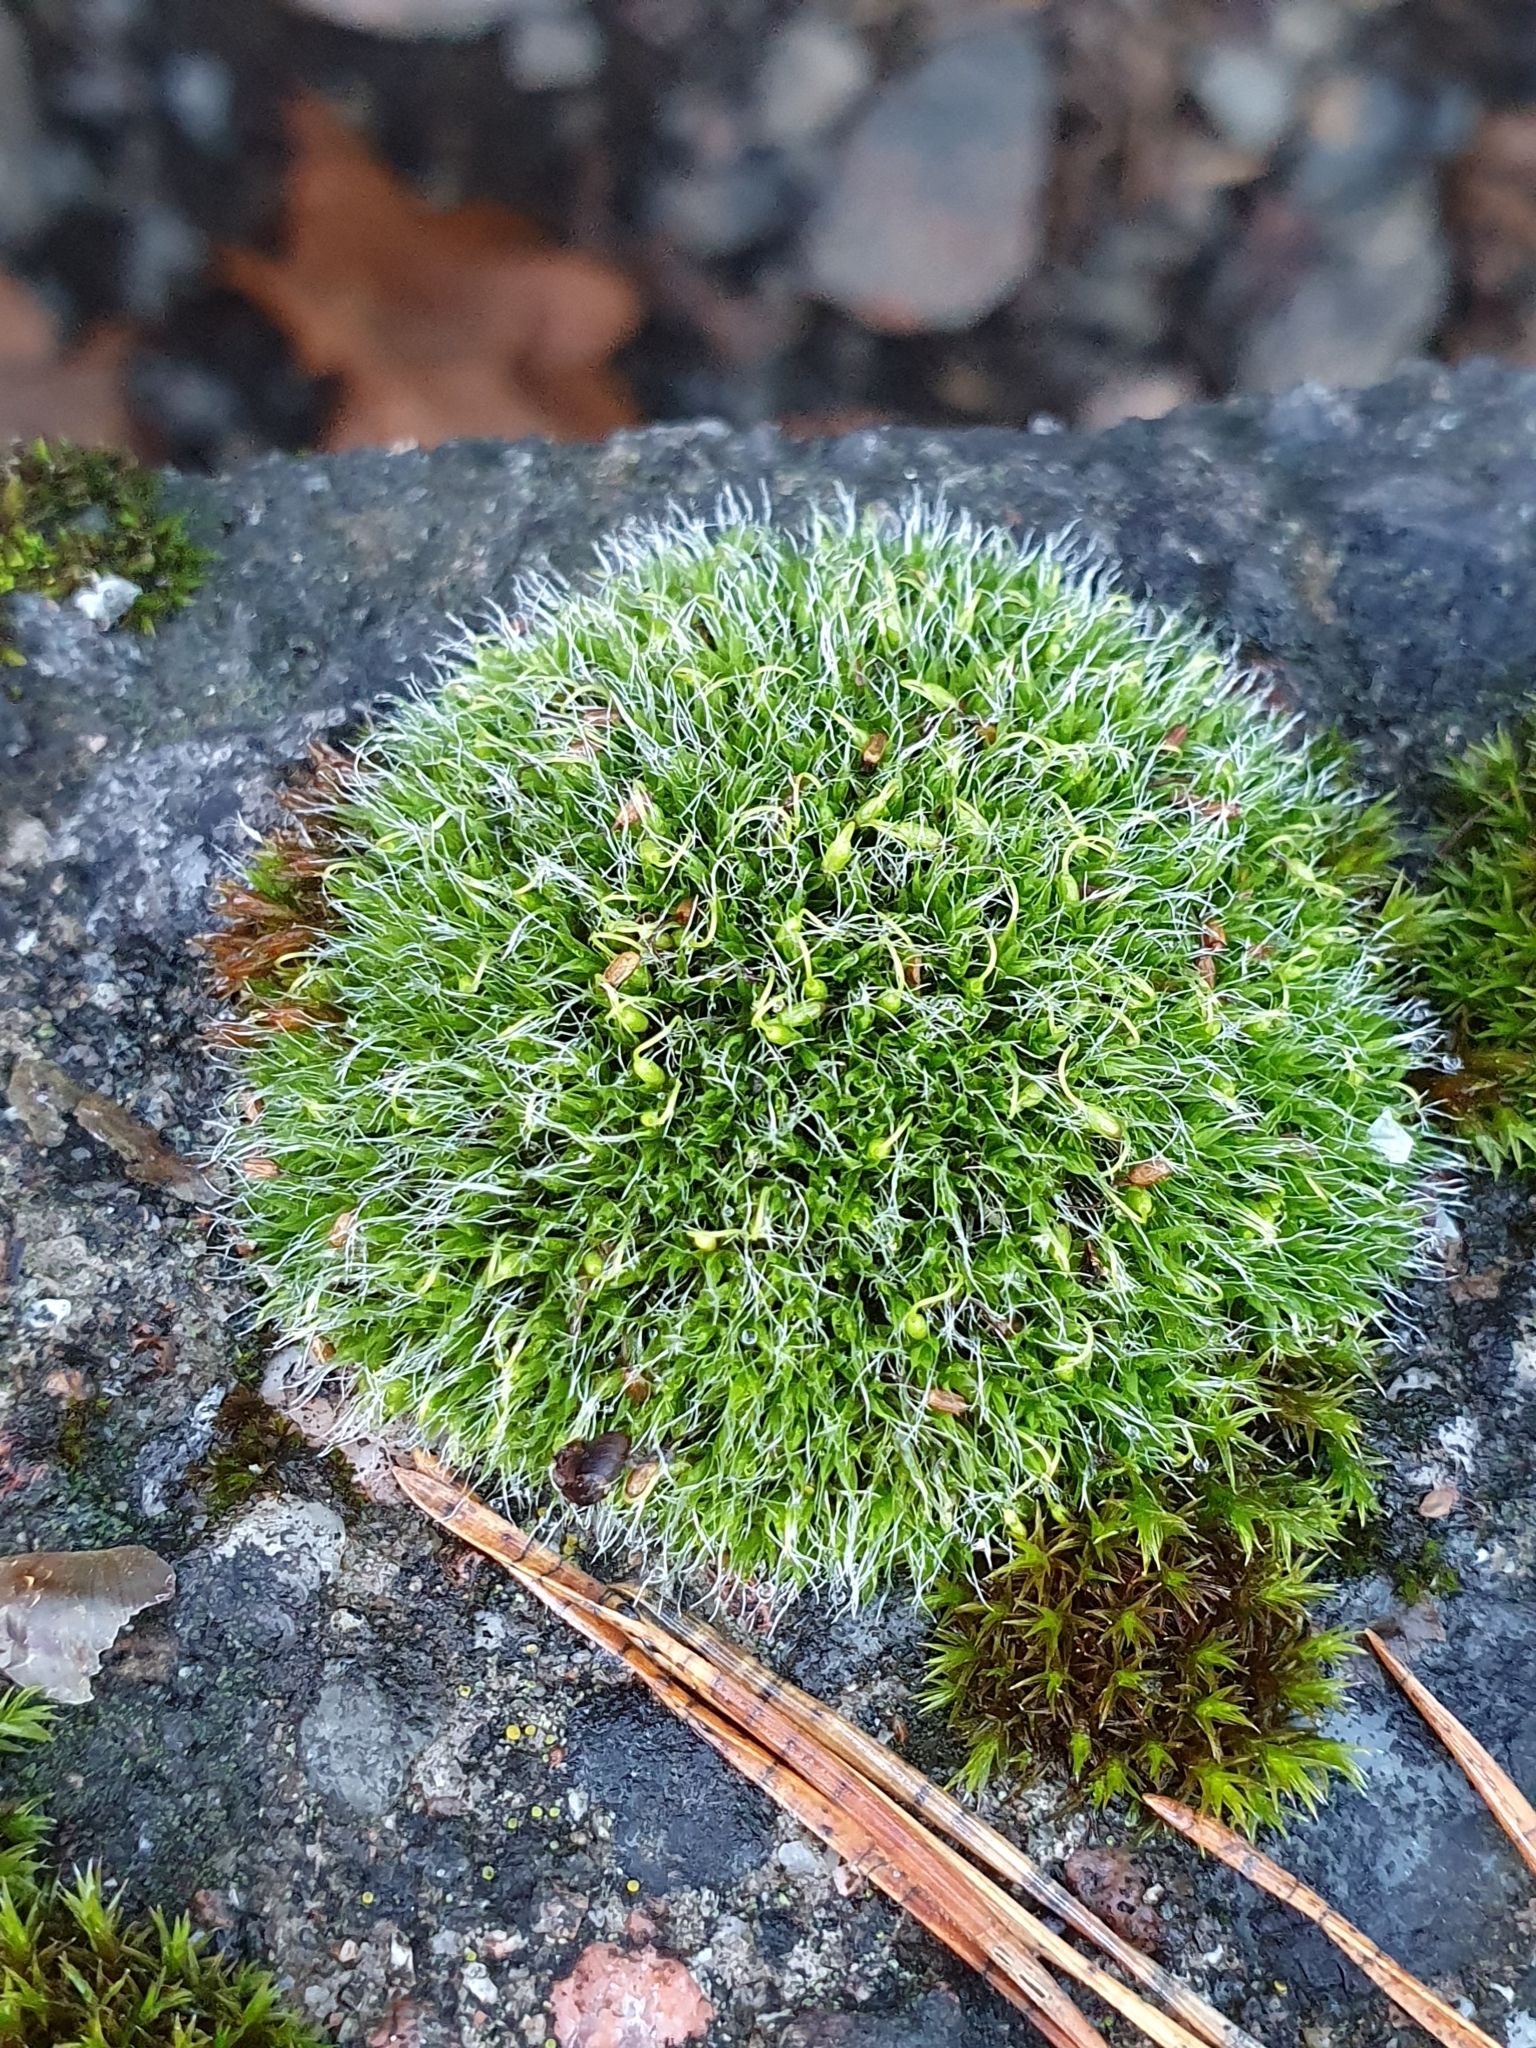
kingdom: Plantae
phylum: Bryophyta
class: Bryopsida
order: Grimmiales
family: Grimmiaceae
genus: Grimmia
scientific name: Grimmia pulvinata
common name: Grey-cushioned grimmia
